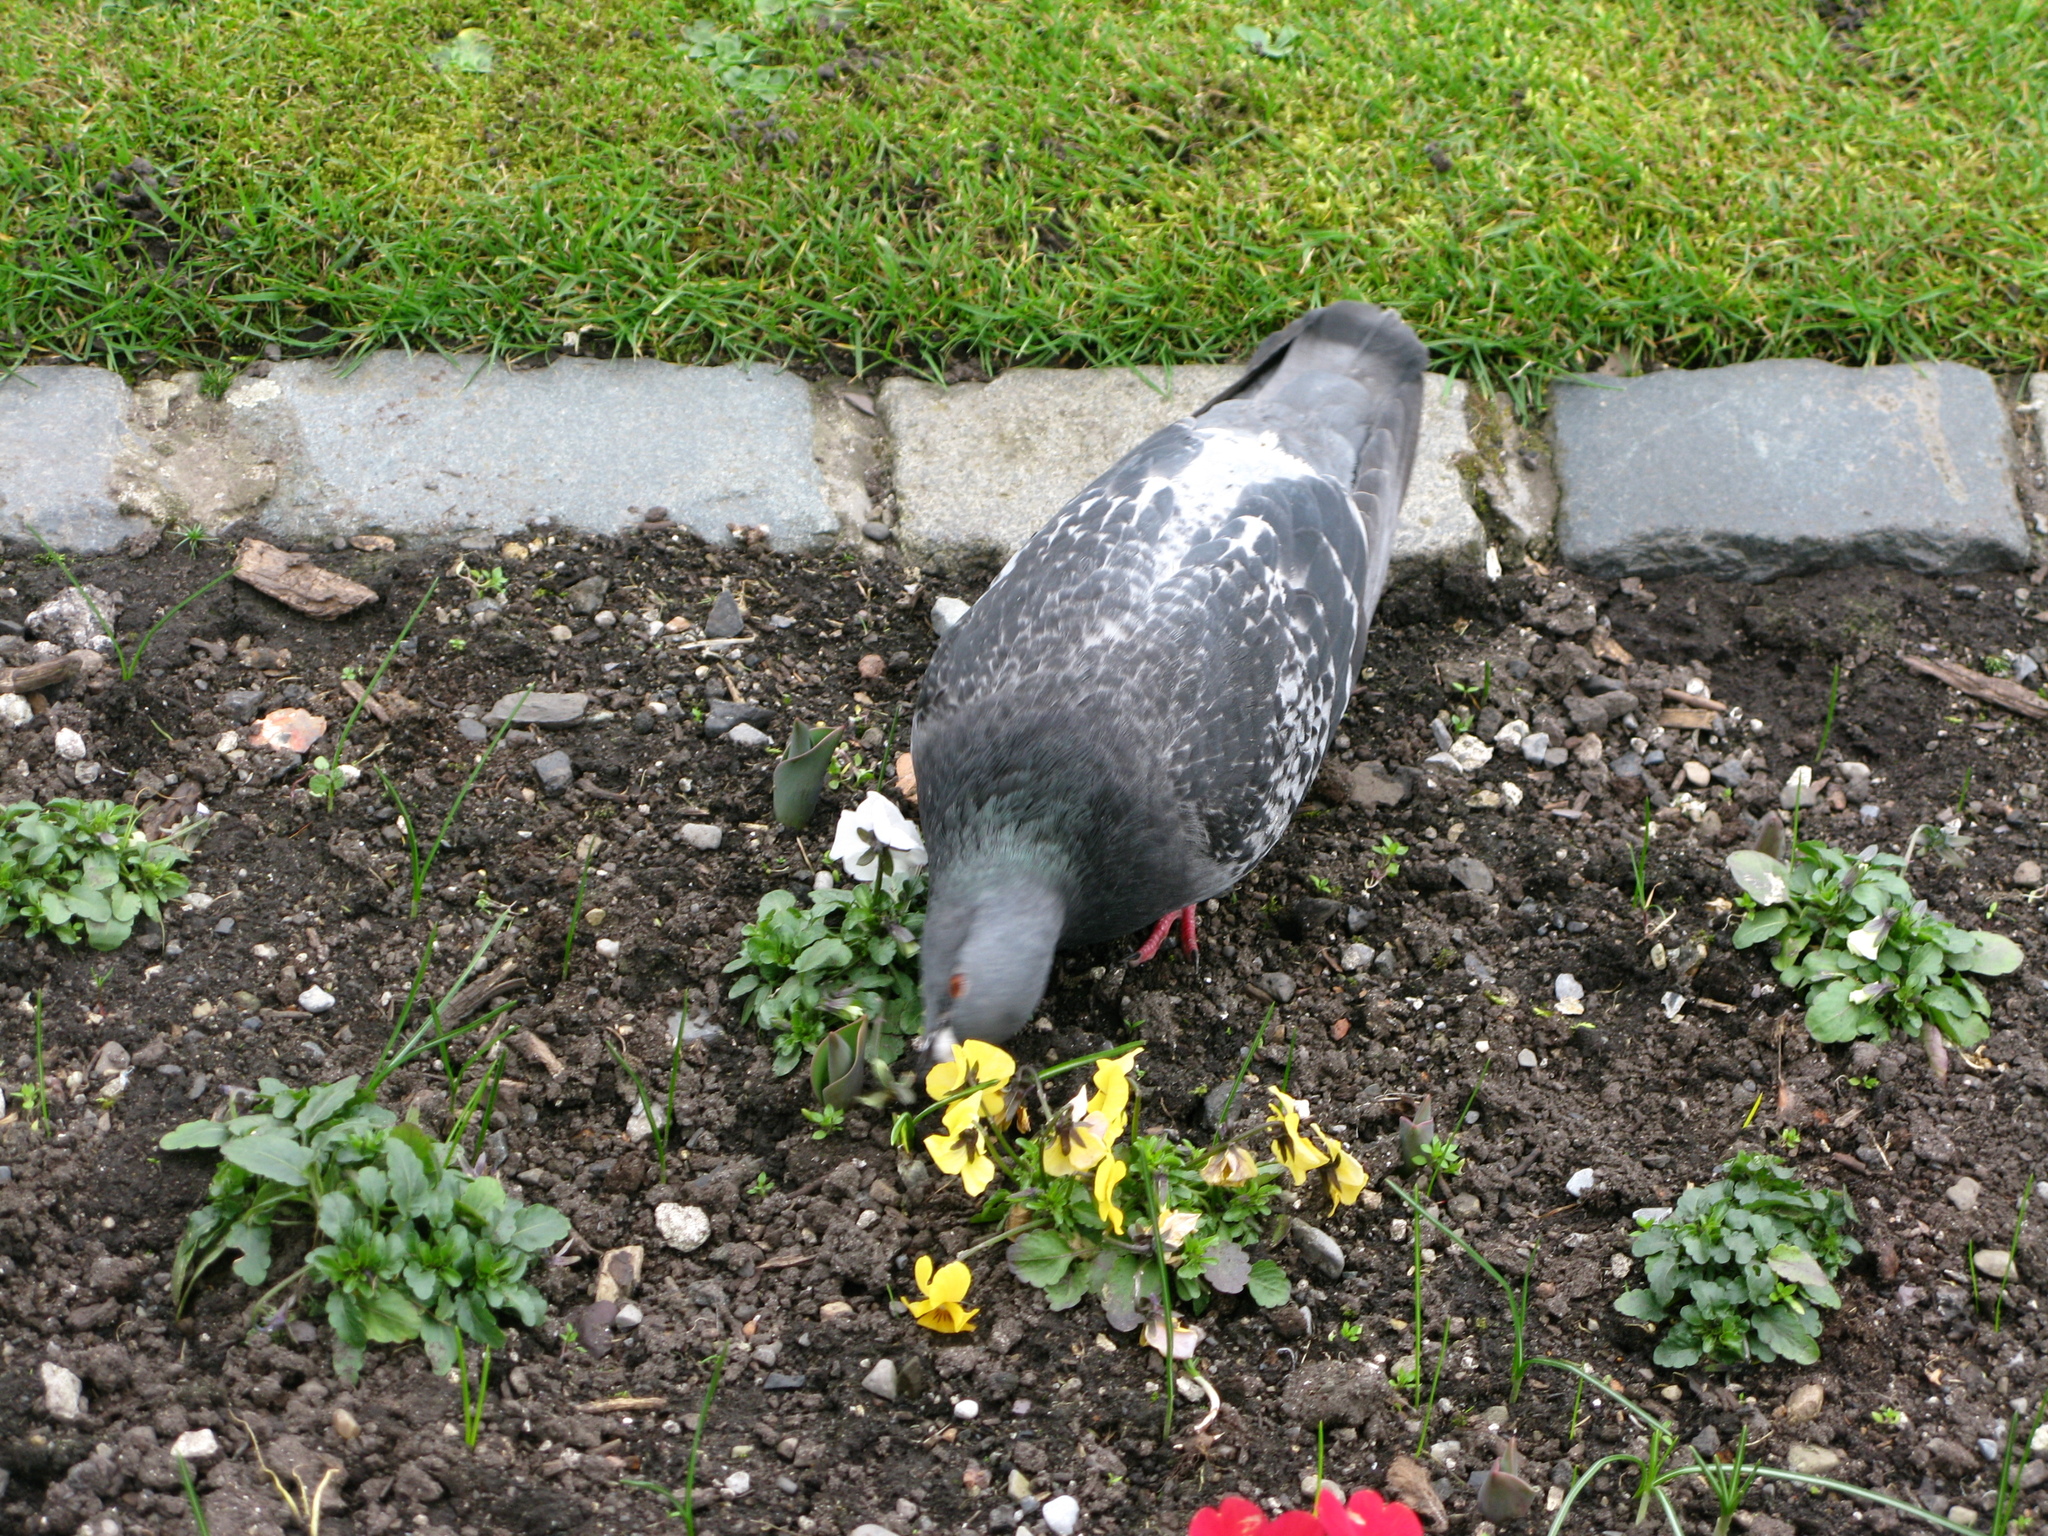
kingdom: Animalia
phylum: Chordata
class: Aves
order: Columbiformes
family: Columbidae
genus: Columba
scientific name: Columba livia
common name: Rock pigeon
